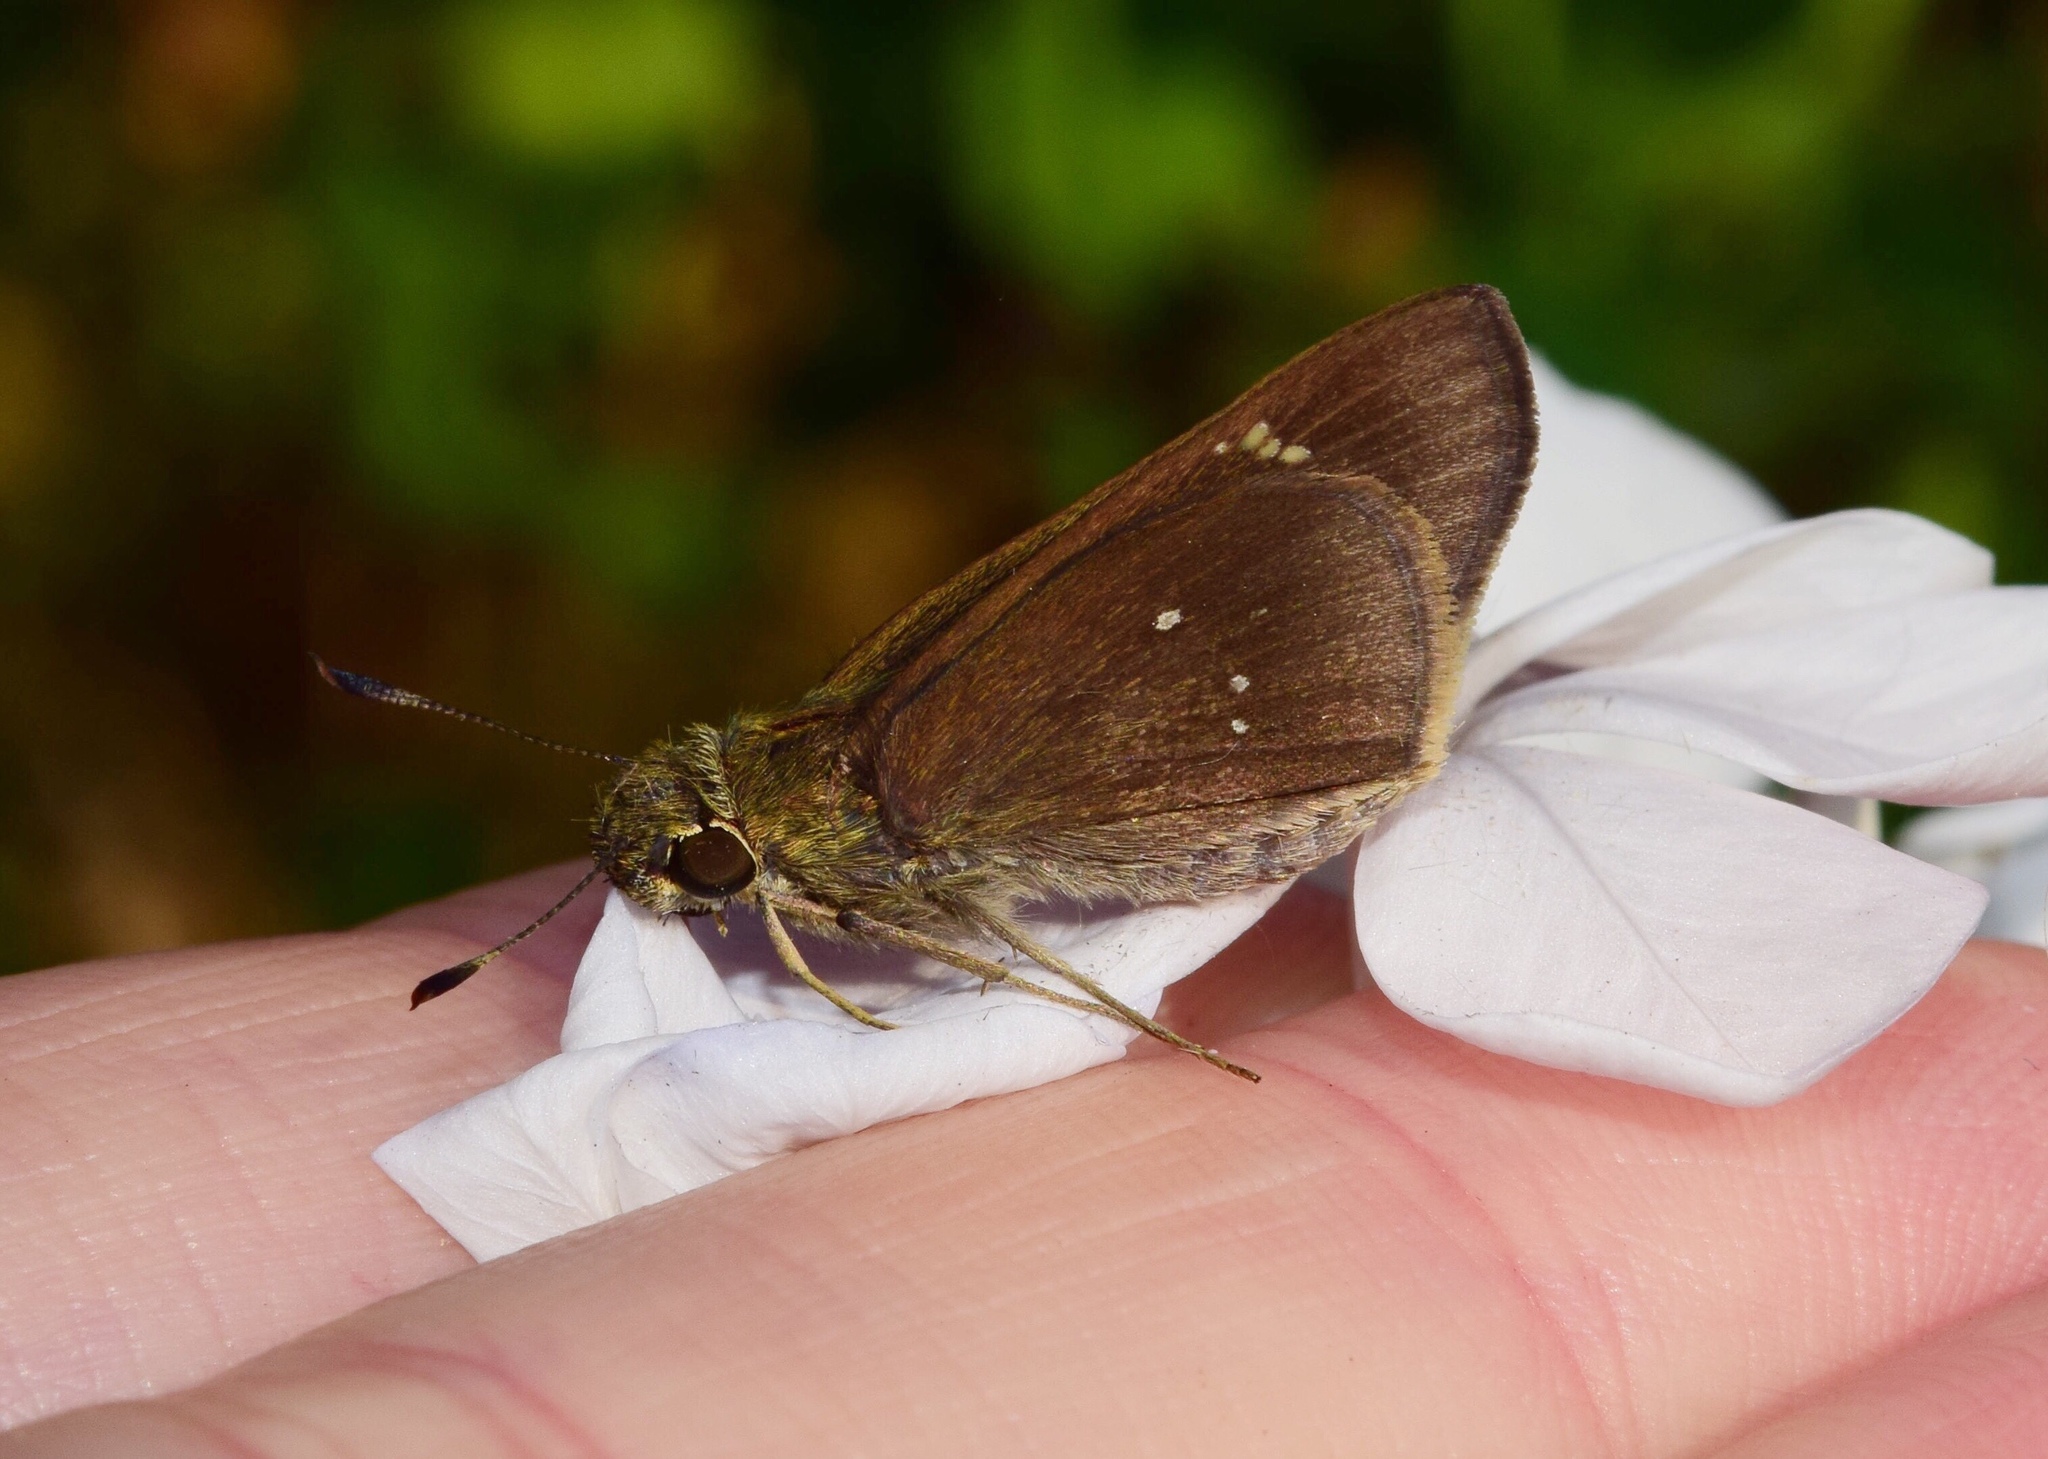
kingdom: Animalia
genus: Torbenlarsenia
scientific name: Torbenlarsenia
